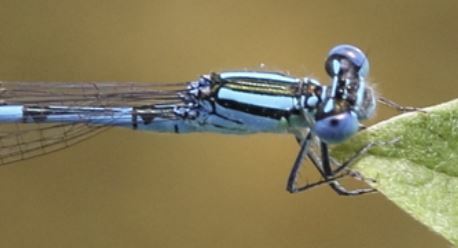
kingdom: Animalia
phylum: Arthropoda
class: Insecta
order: Odonata
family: Coenagrionidae
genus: Erythromma
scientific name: Erythromma lindenii
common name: Blue-eye
